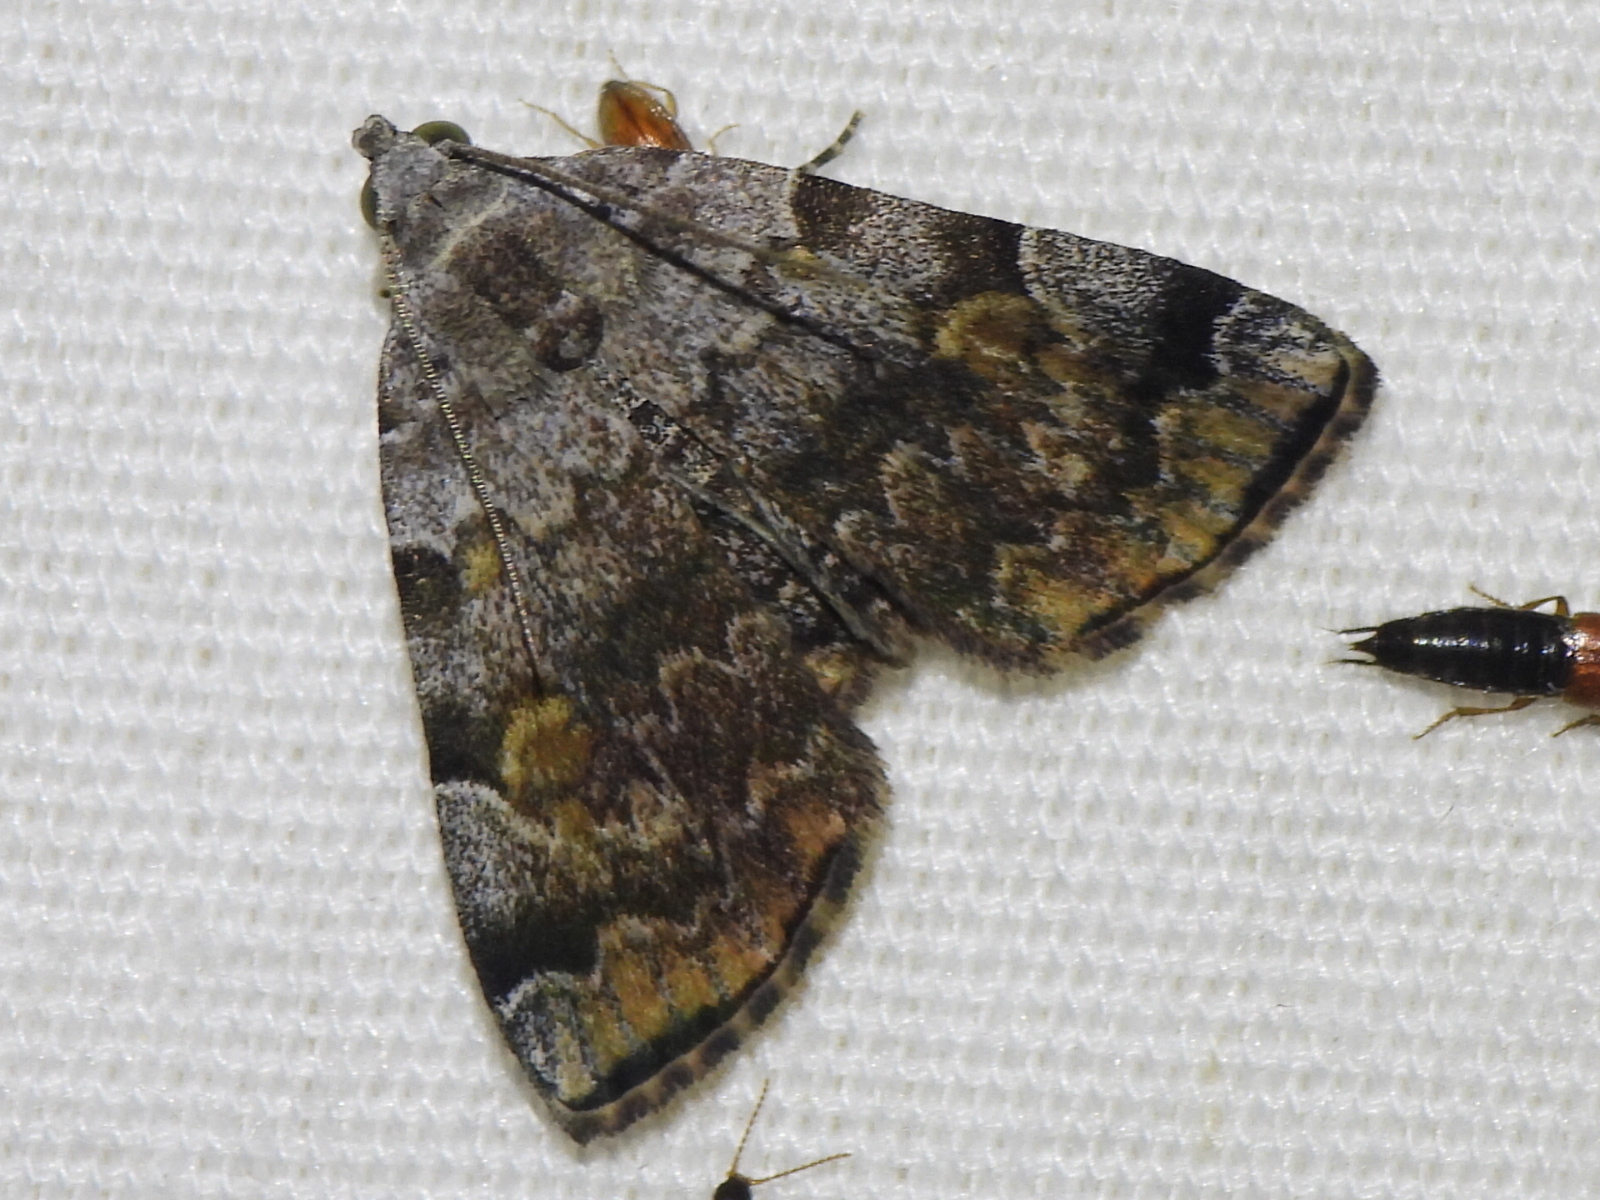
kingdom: Animalia
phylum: Arthropoda
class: Insecta
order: Lepidoptera
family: Erebidae
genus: Idia
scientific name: Idia americalis
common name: American idia moth
